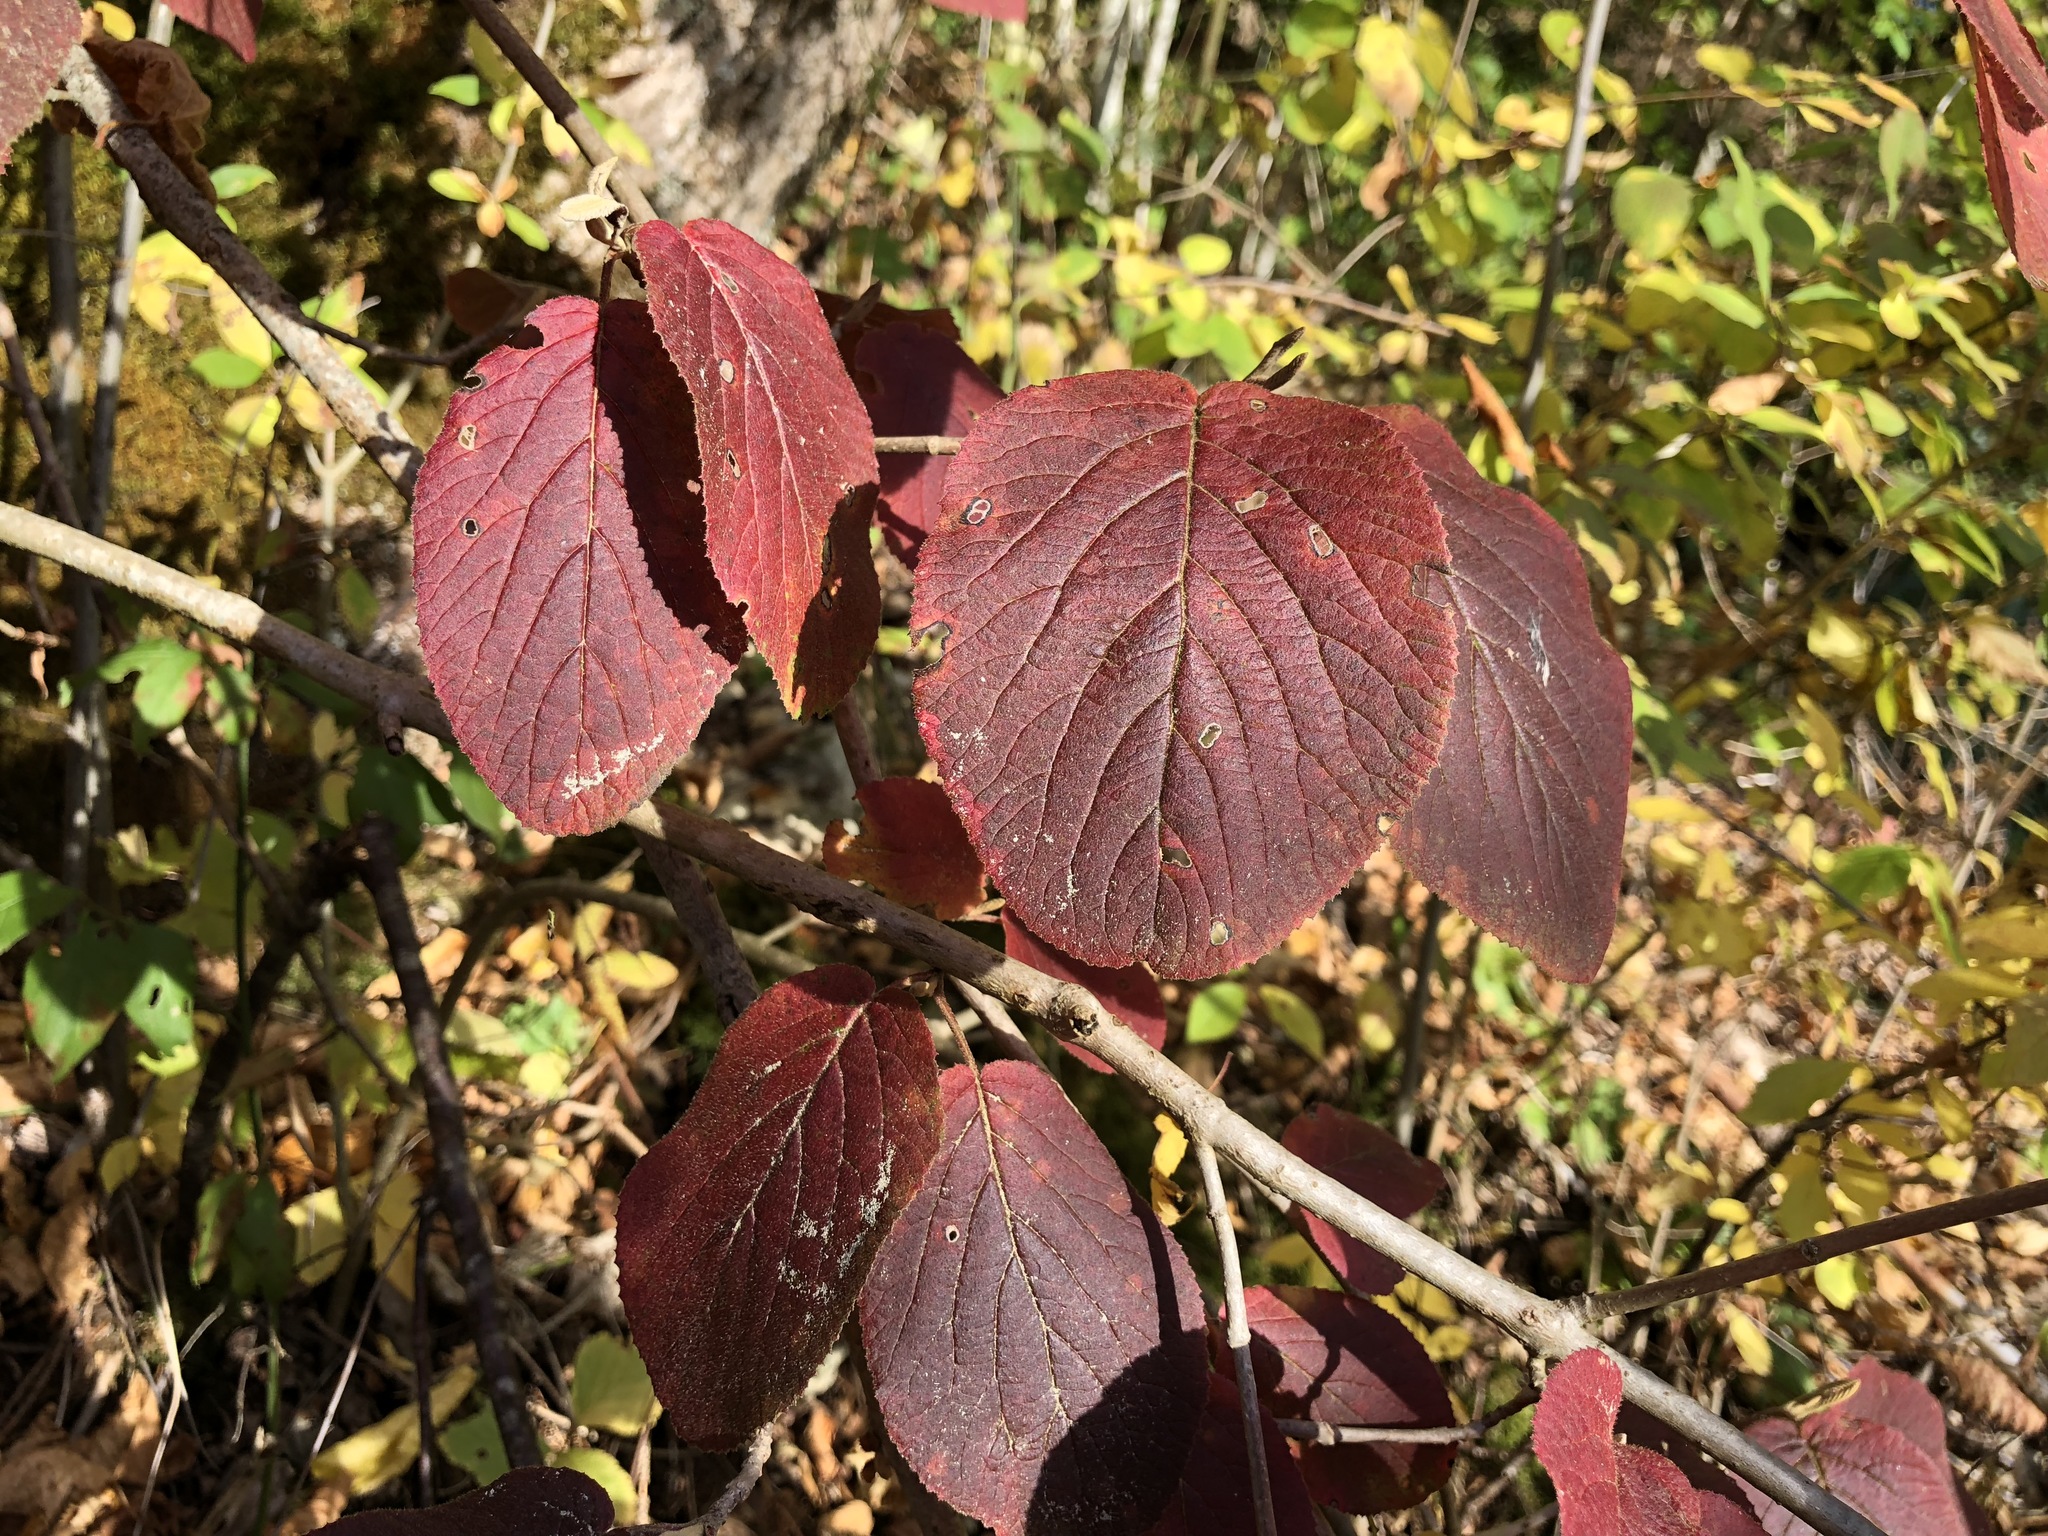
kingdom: Plantae
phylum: Tracheophyta
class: Magnoliopsida
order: Dipsacales
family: Viburnaceae
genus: Viburnum
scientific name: Viburnum lantana
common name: Wayfaring tree
